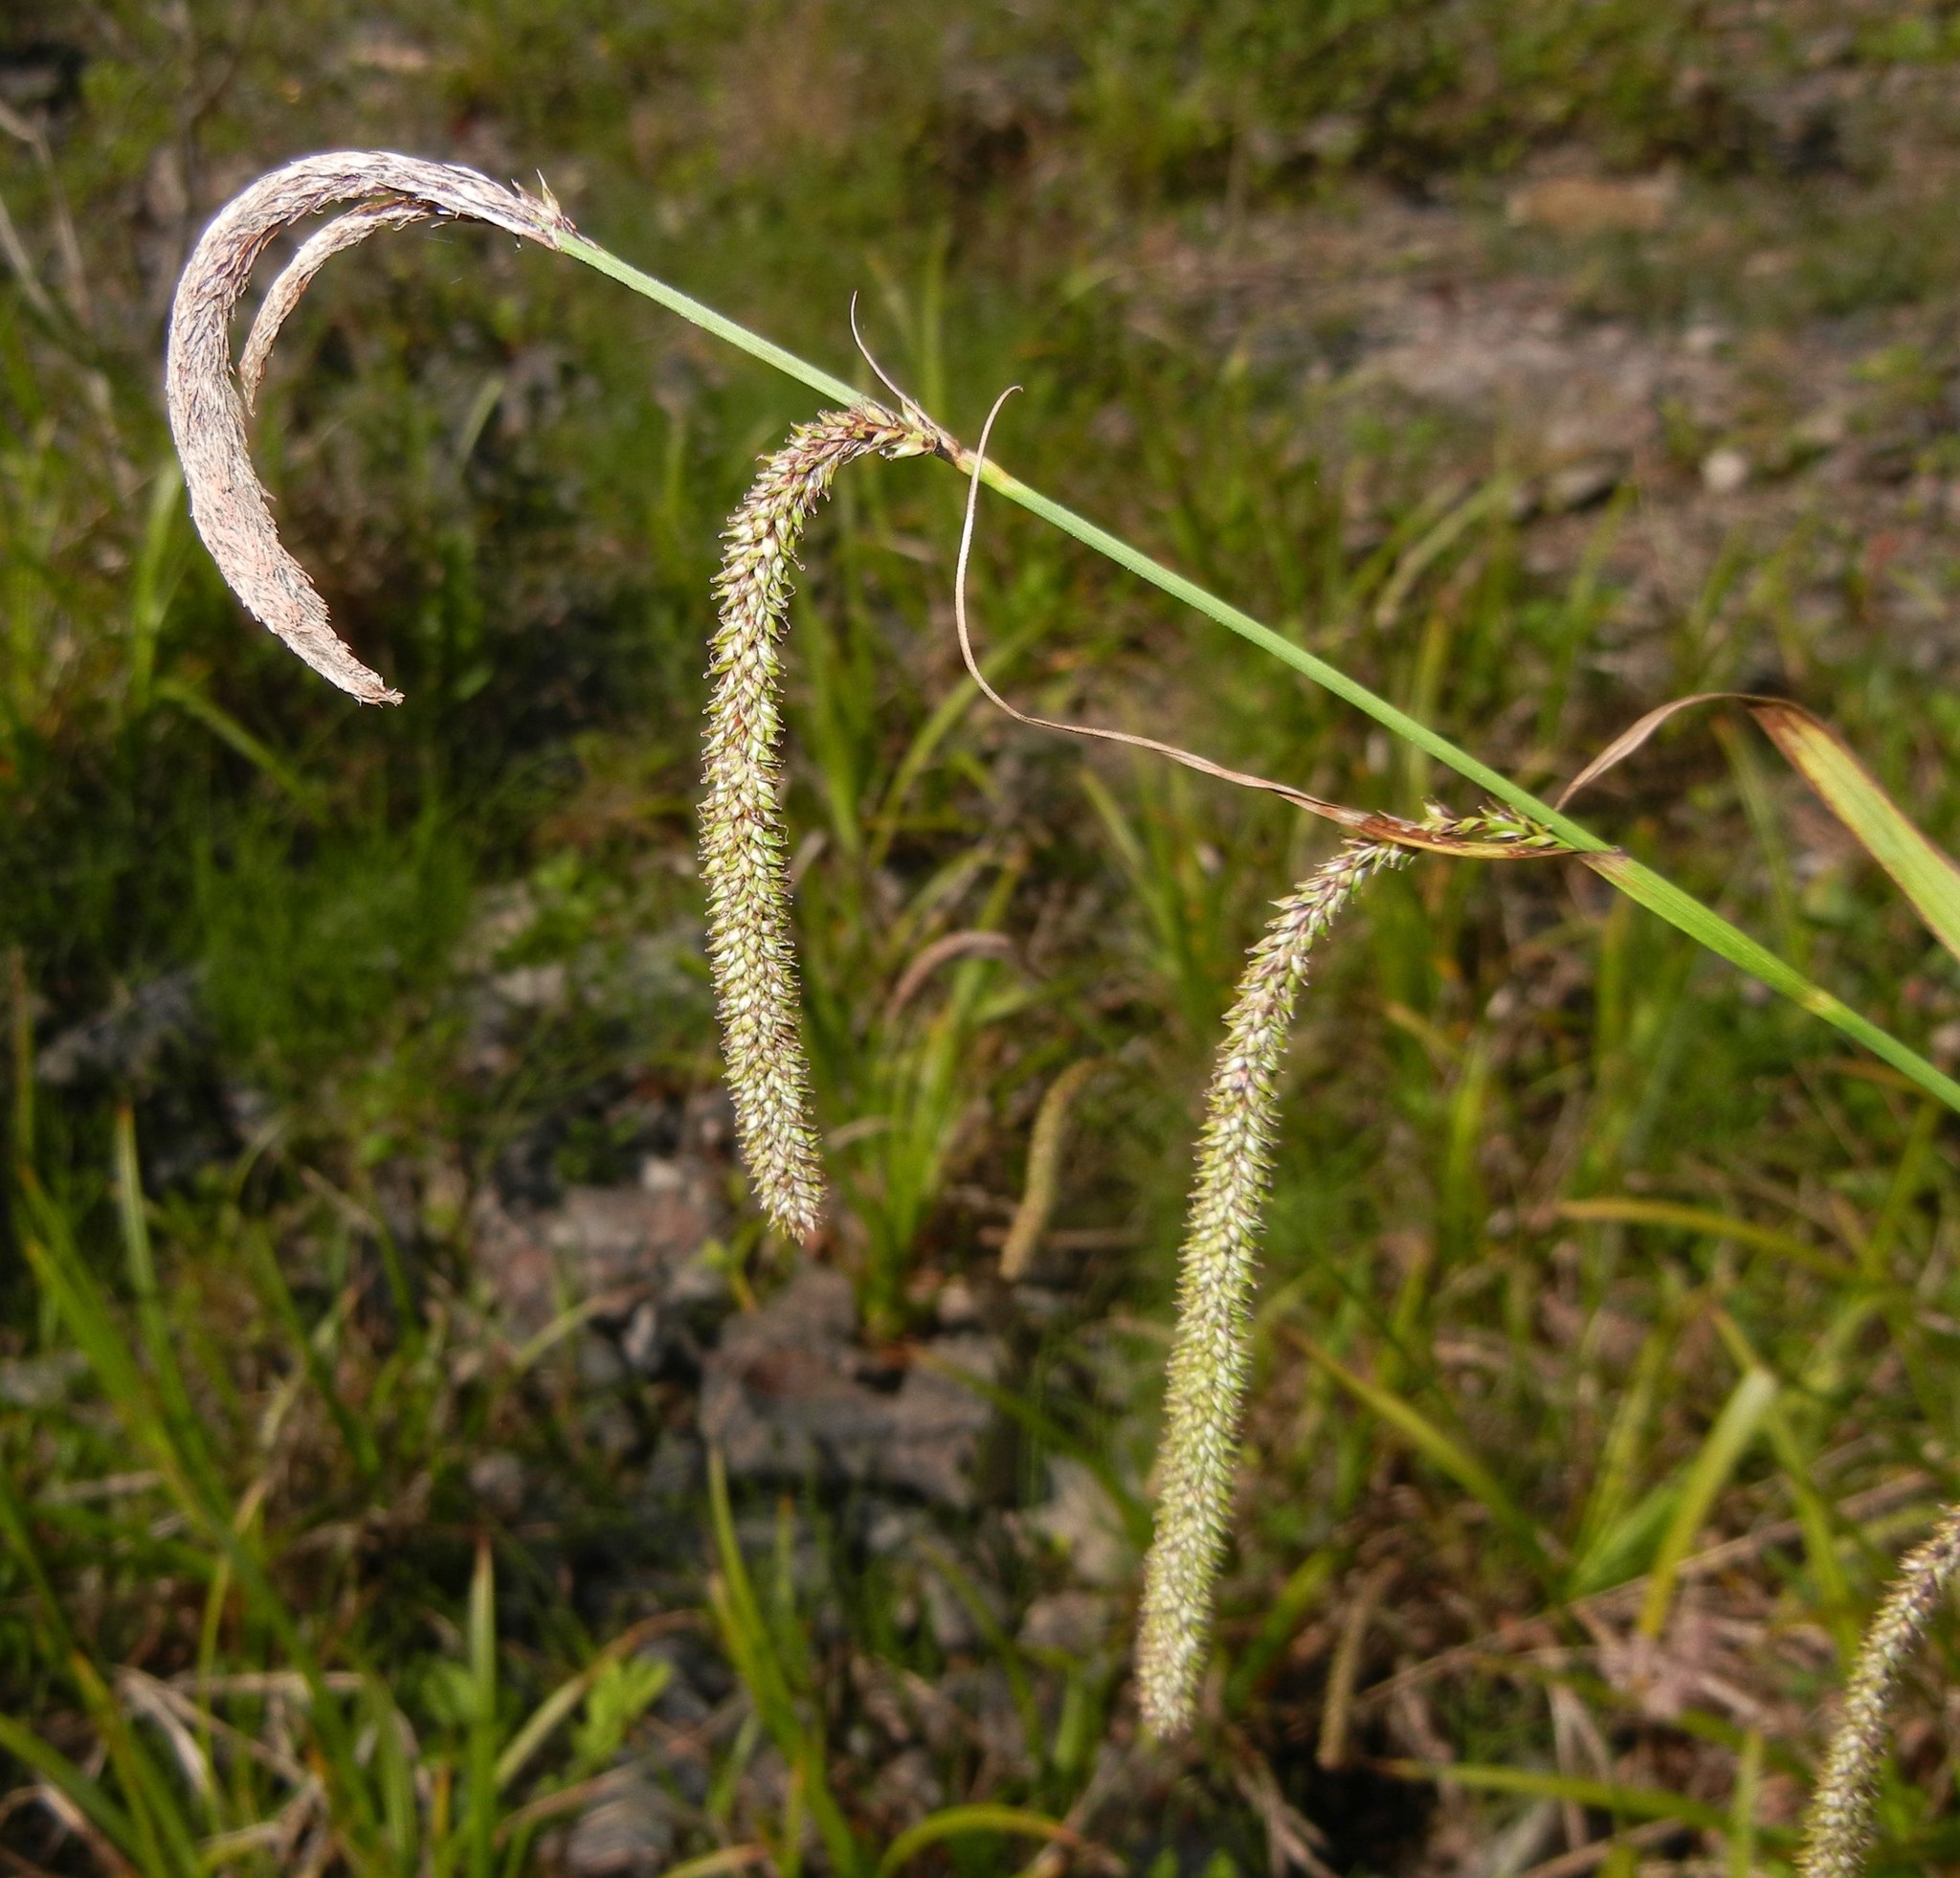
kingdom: Plantae
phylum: Tracheophyta
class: Liliopsida
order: Poales
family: Cyperaceae
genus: Carex
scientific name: Carex pendula
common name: Pendulous sedge
